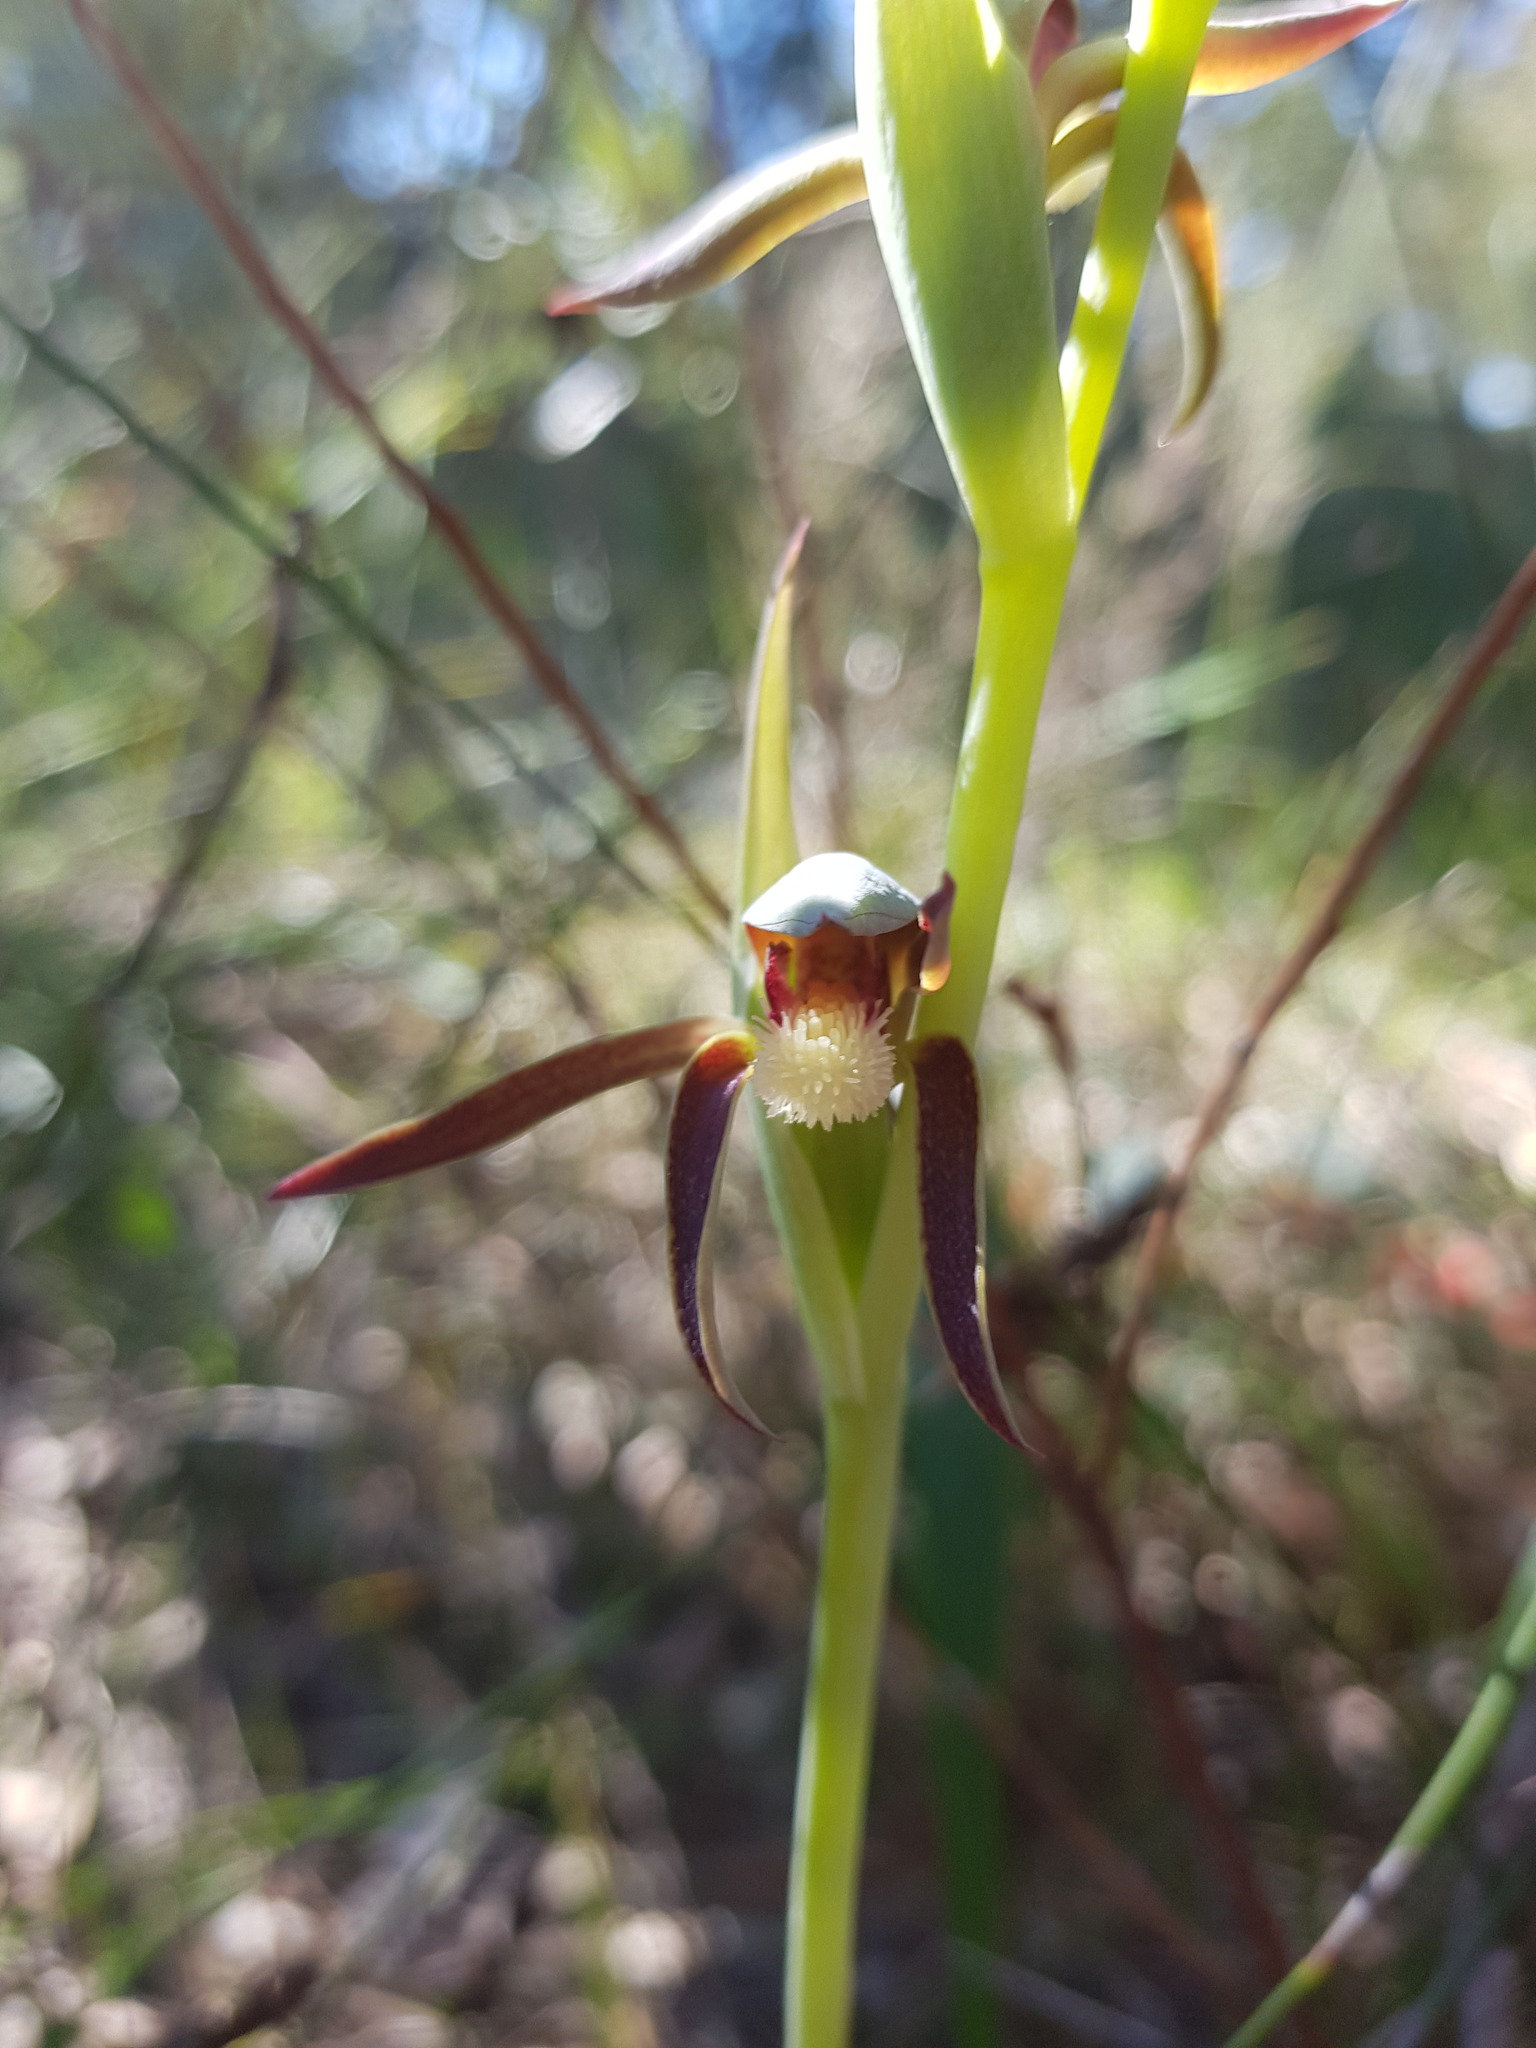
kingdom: Plantae
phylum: Tracheophyta
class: Liliopsida
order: Asparagales
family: Orchidaceae
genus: Lyperanthus
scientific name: Lyperanthus serratus
